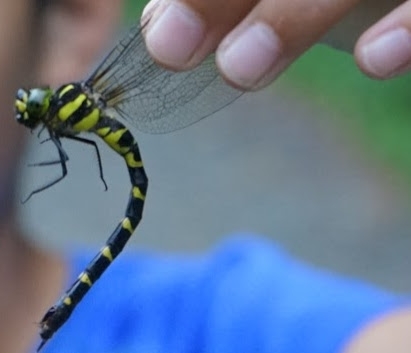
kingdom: Animalia
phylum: Arthropoda
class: Insecta
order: Odonata
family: Aeshnidae
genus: Aeschnophlebia
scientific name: Aeschnophlebia
